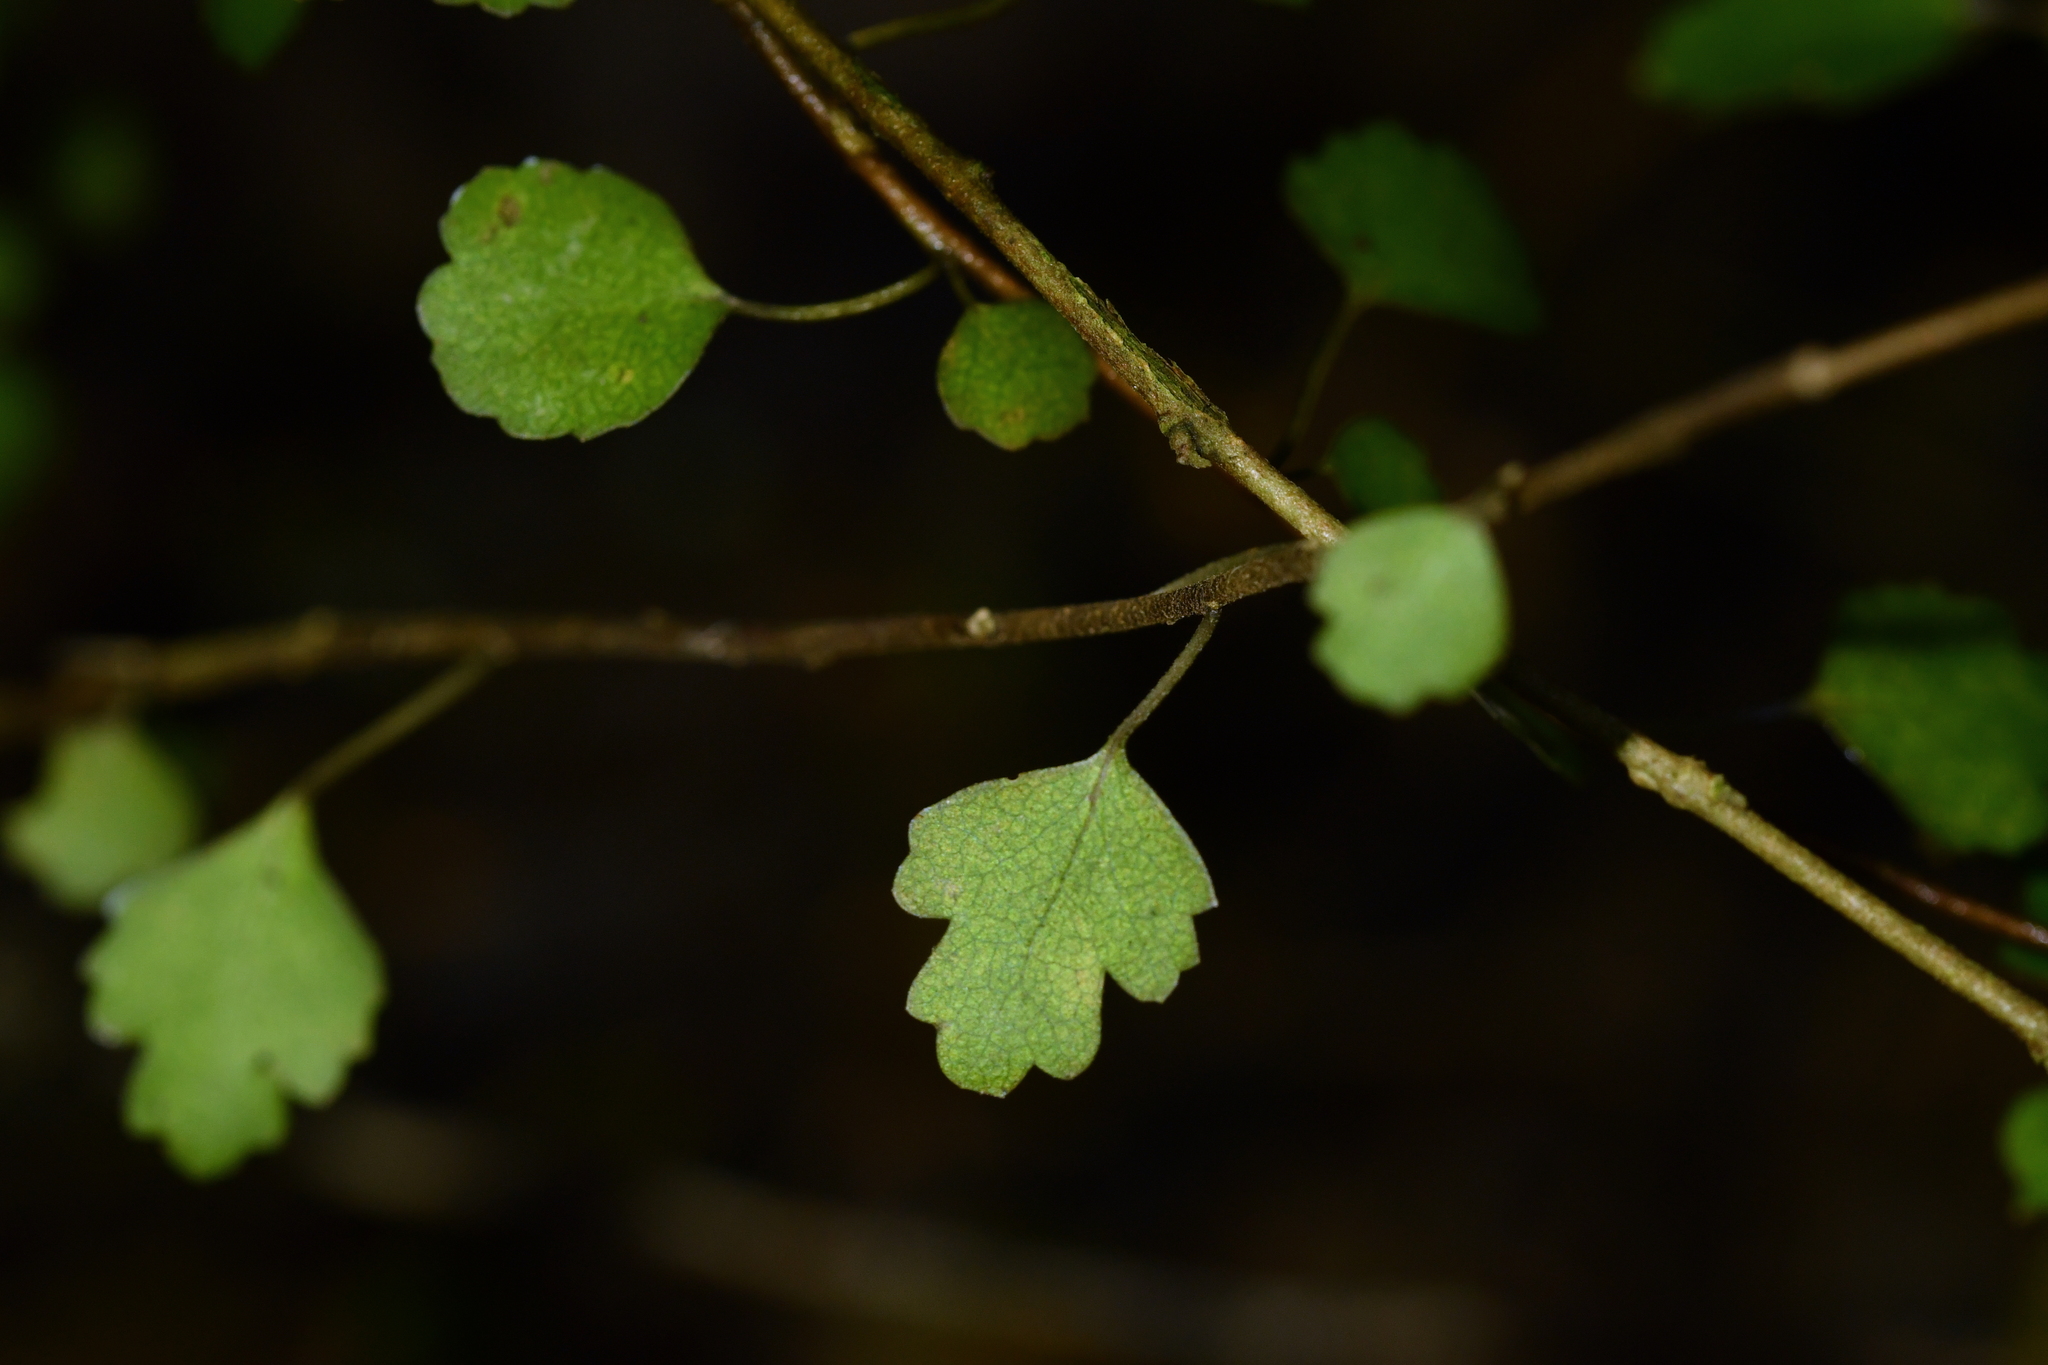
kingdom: Plantae
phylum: Tracheophyta
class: Magnoliopsida
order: Apiales
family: Pennantiaceae
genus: Pennantia
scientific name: Pennantia corymbosa
